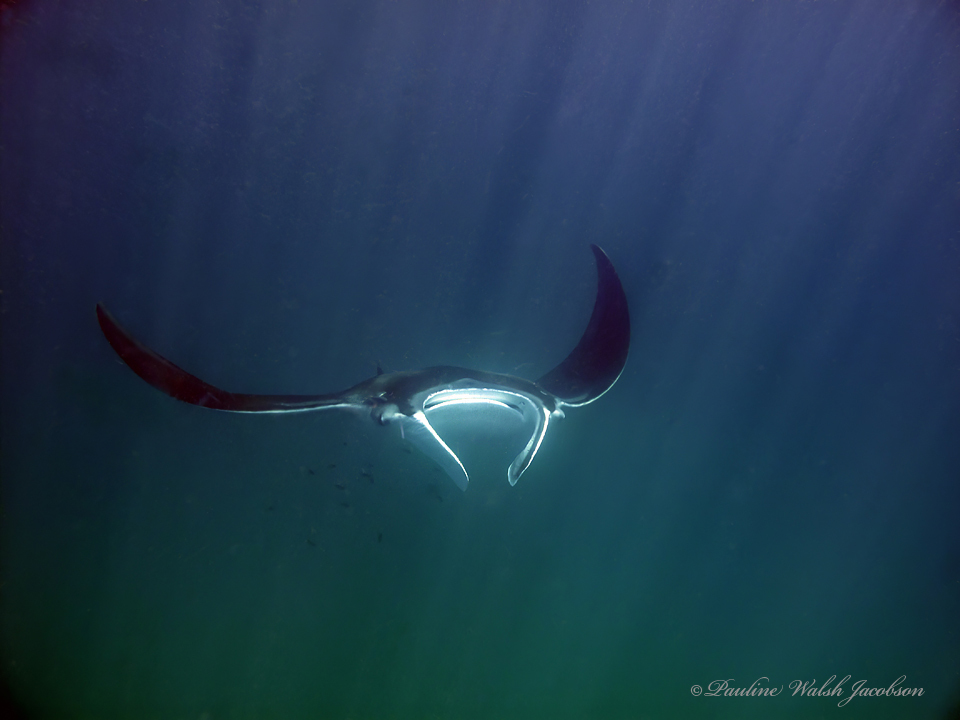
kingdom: Animalia
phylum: Chordata
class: Elasmobranchii
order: Myliobatiformes
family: Myliobatidae
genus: Mobula
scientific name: Mobula birostris
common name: Manta ray
